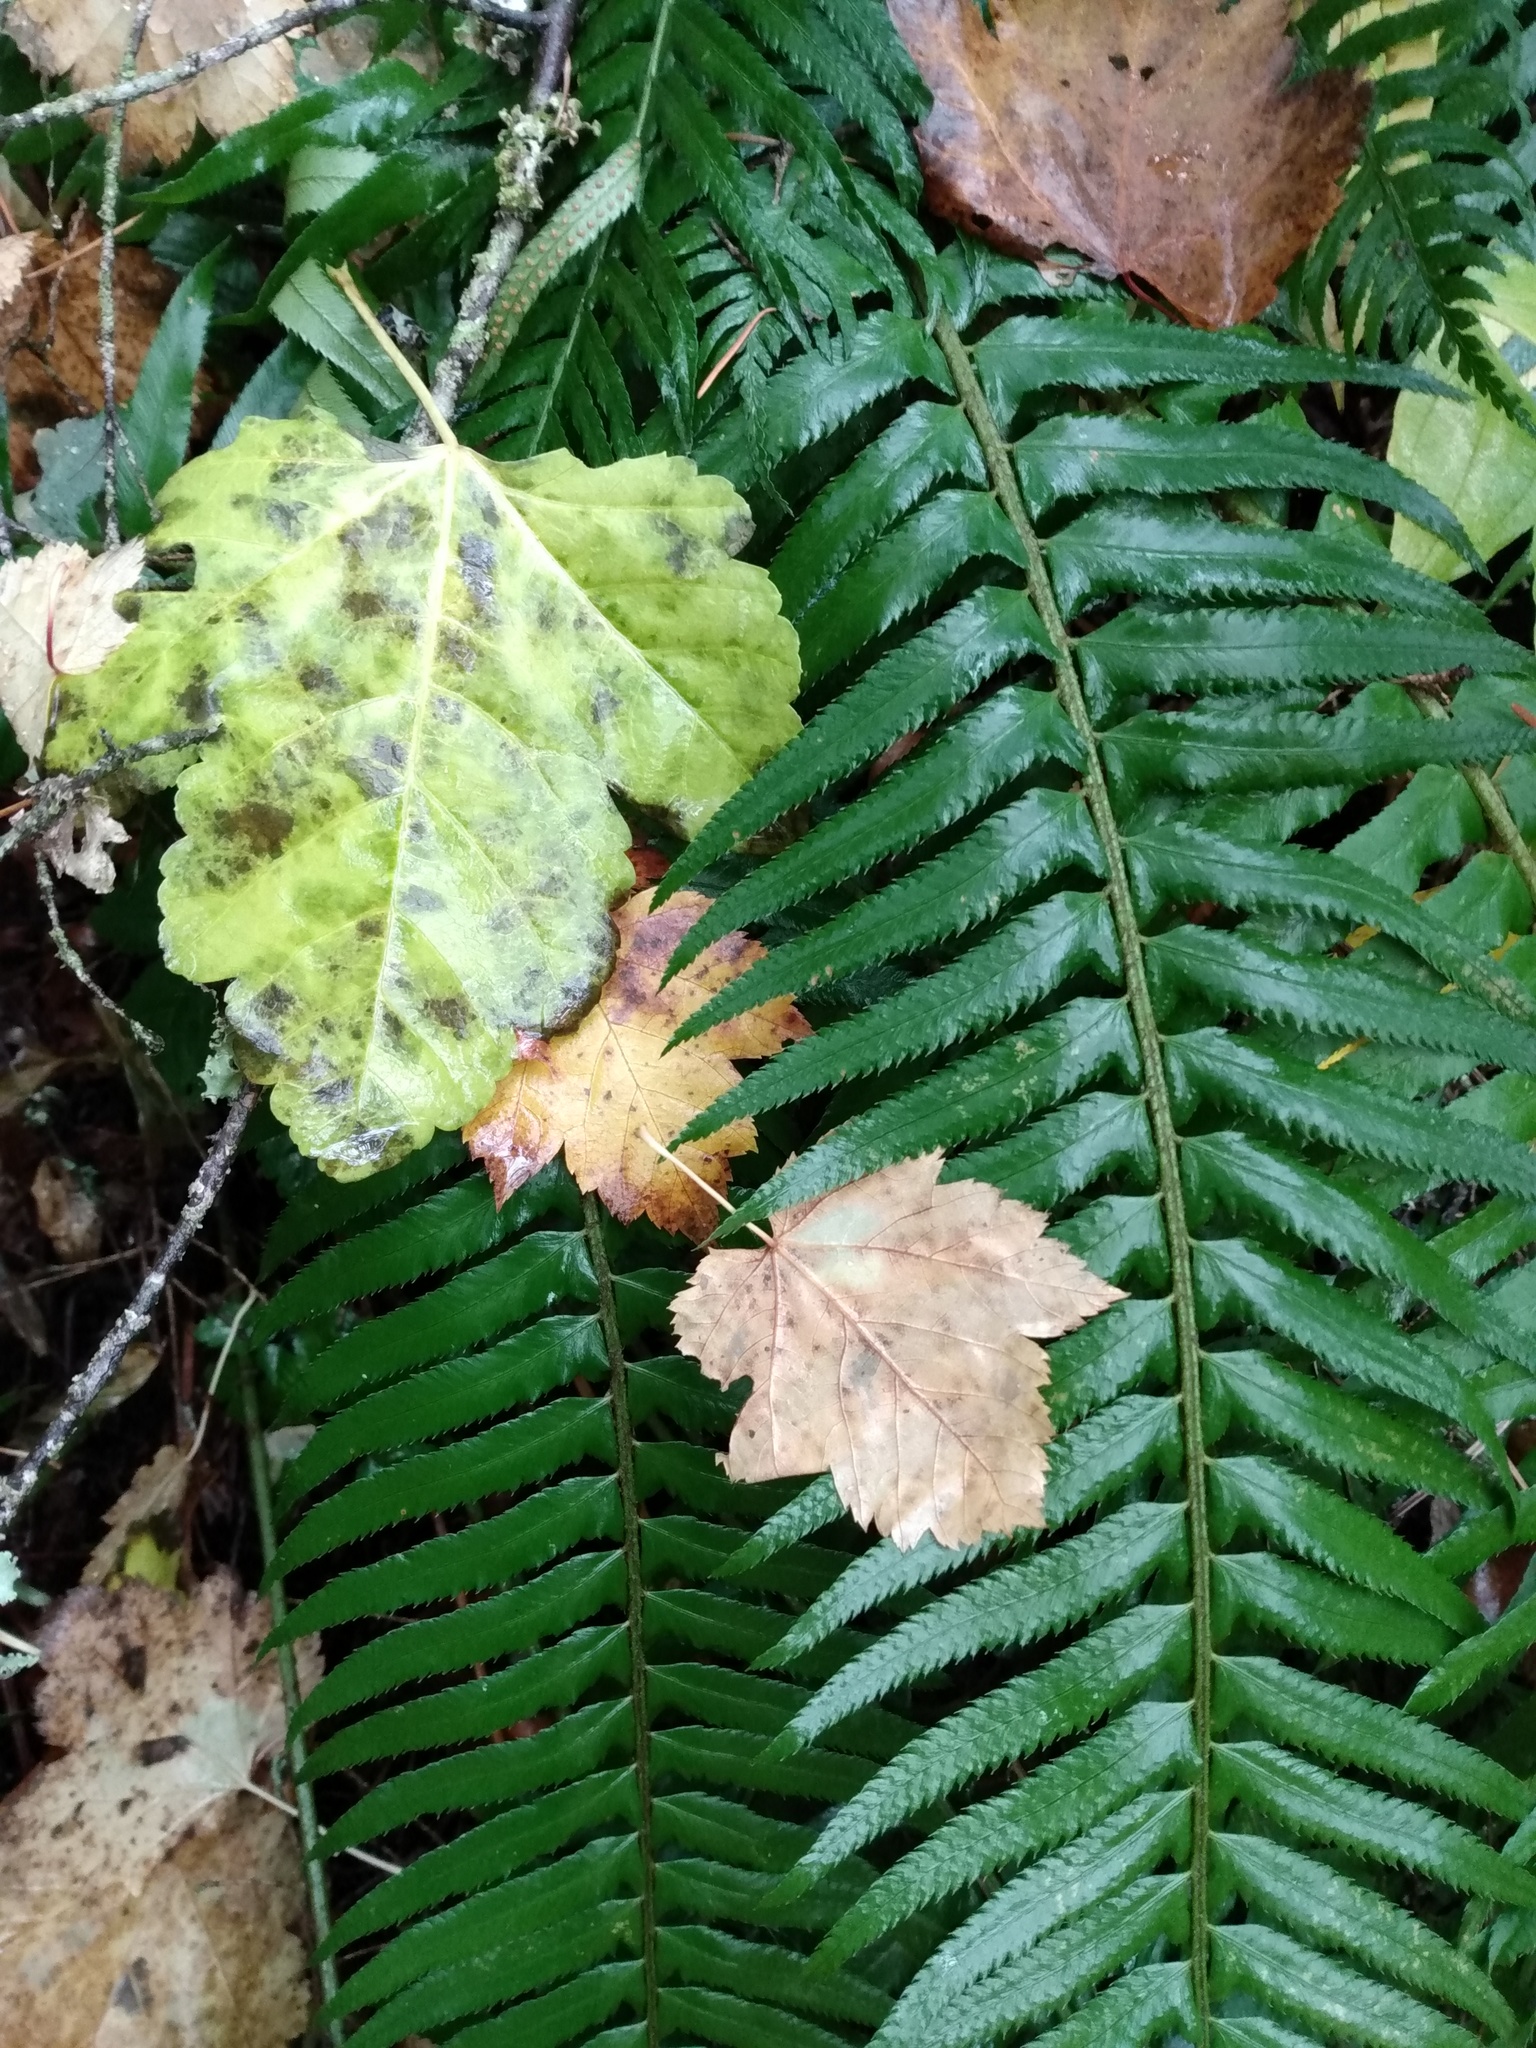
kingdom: Plantae
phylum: Tracheophyta
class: Polypodiopsida
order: Polypodiales
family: Dryopteridaceae
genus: Polystichum
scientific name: Polystichum munitum
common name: Western sword-fern
